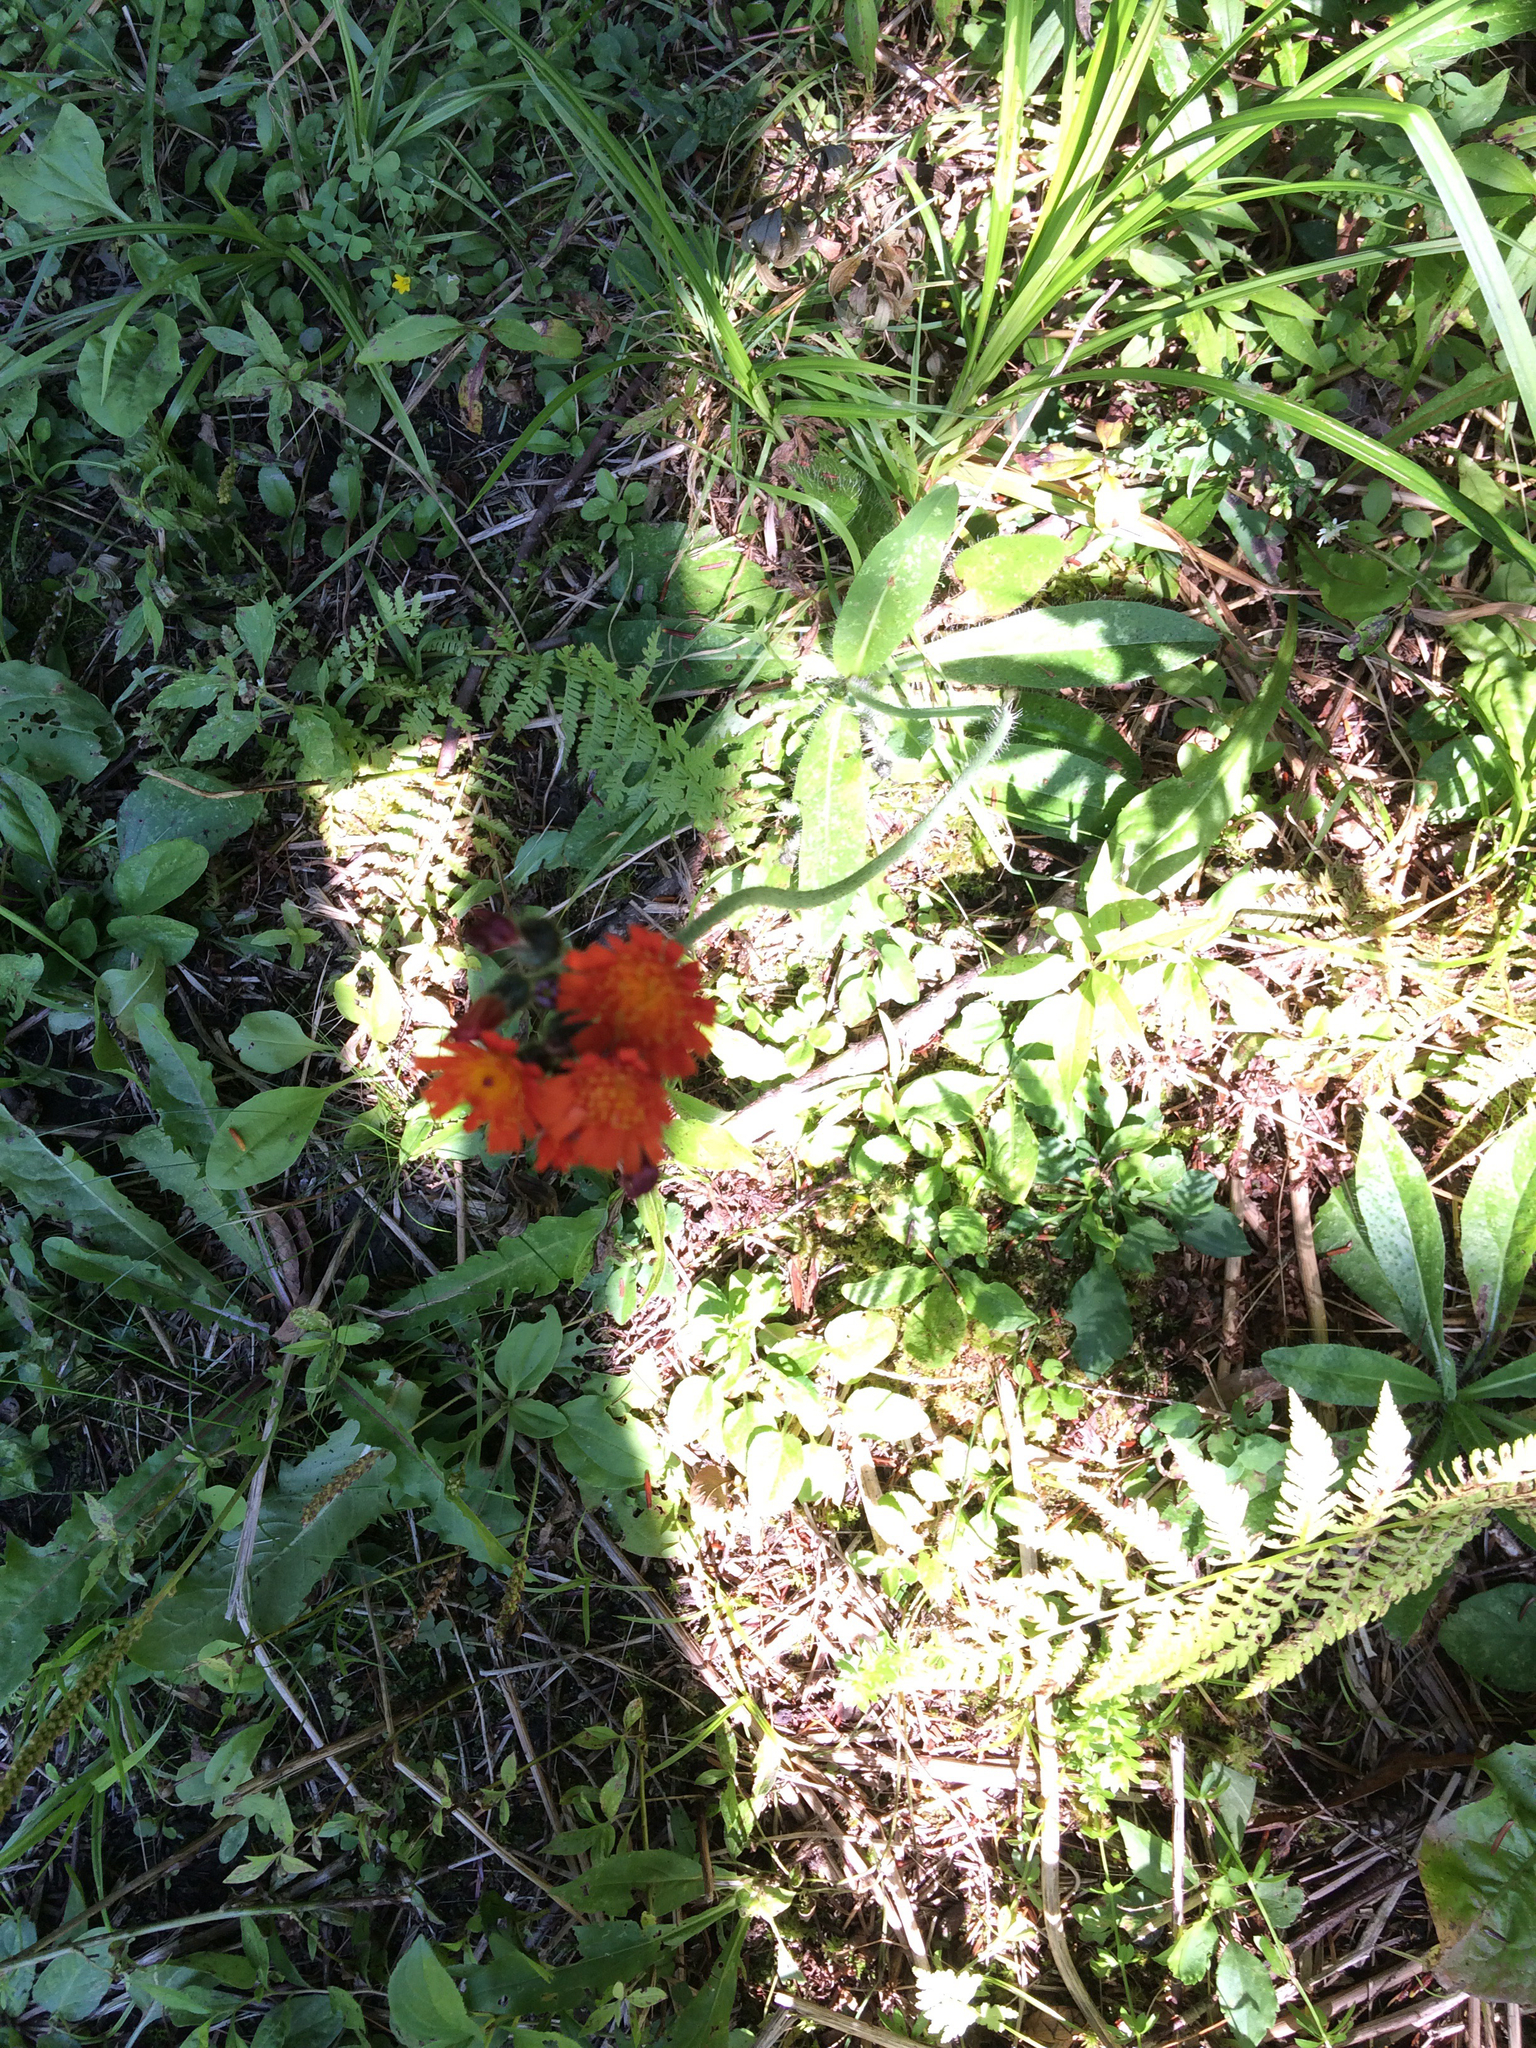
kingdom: Plantae
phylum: Tracheophyta
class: Magnoliopsida
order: Asterales
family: Asteraceae
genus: Pilosella
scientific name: Pilosella aurantiaca
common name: Fox-and-cubs
